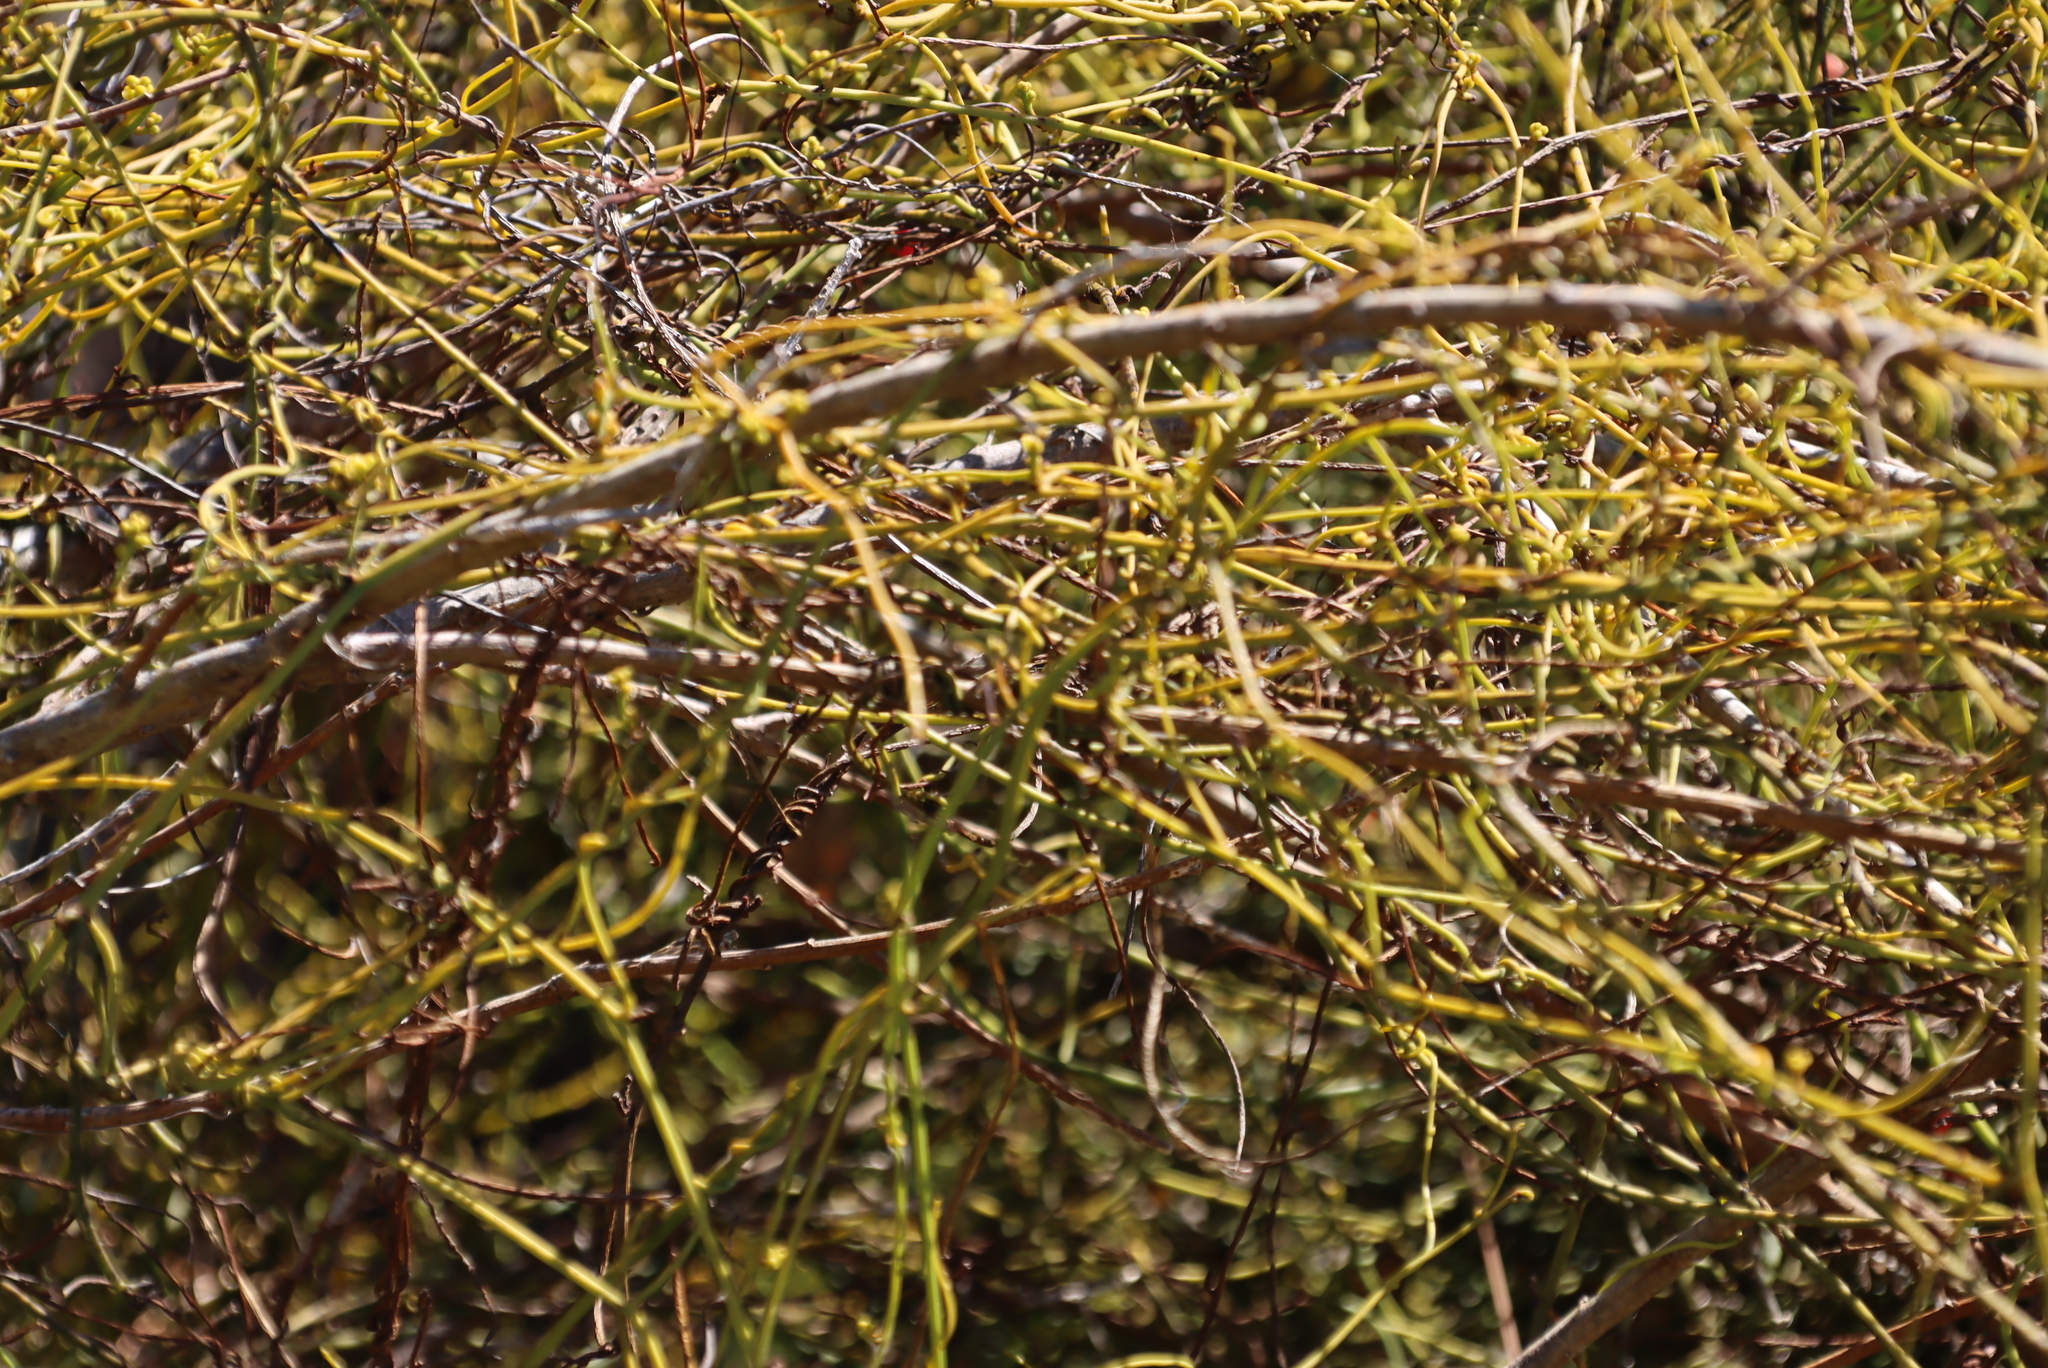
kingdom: Plantae
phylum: Tracheophyta
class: Magnoliopsida
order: Laurales
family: Lauraceae
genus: Cassytha
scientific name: Cassytha ciliolata
